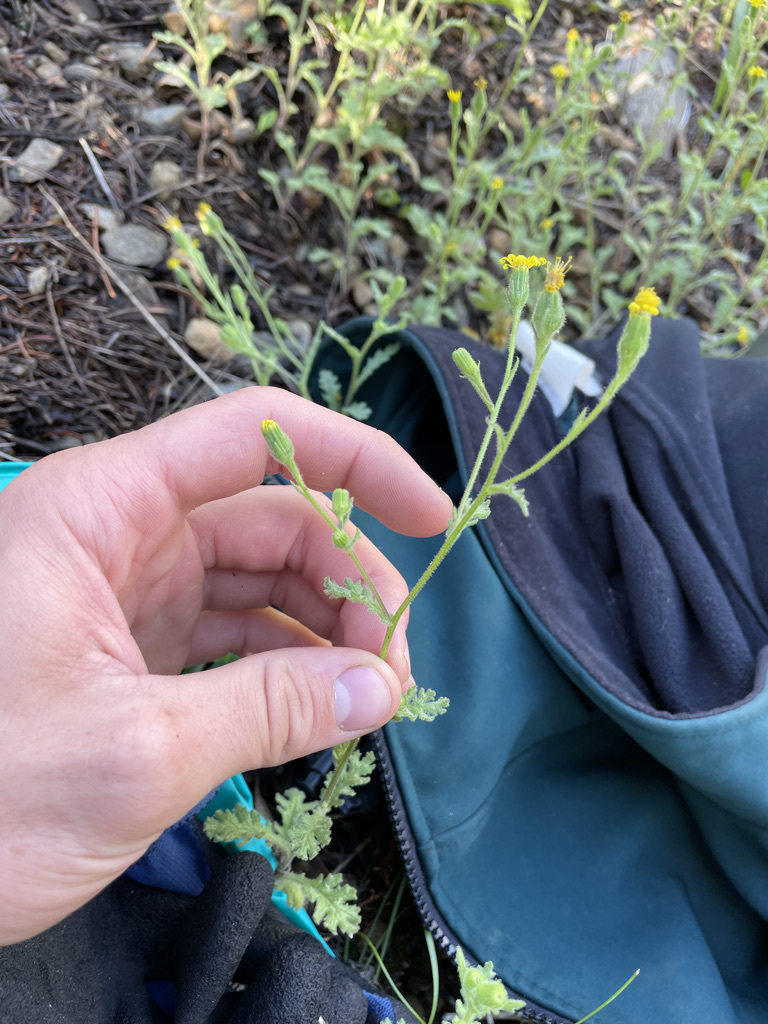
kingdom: Plantae
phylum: Tracheophyta
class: Magnoliopsida
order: Asterales
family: Asteraceae
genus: Senecio
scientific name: Senecio viscosus
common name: Sticky groundsel
